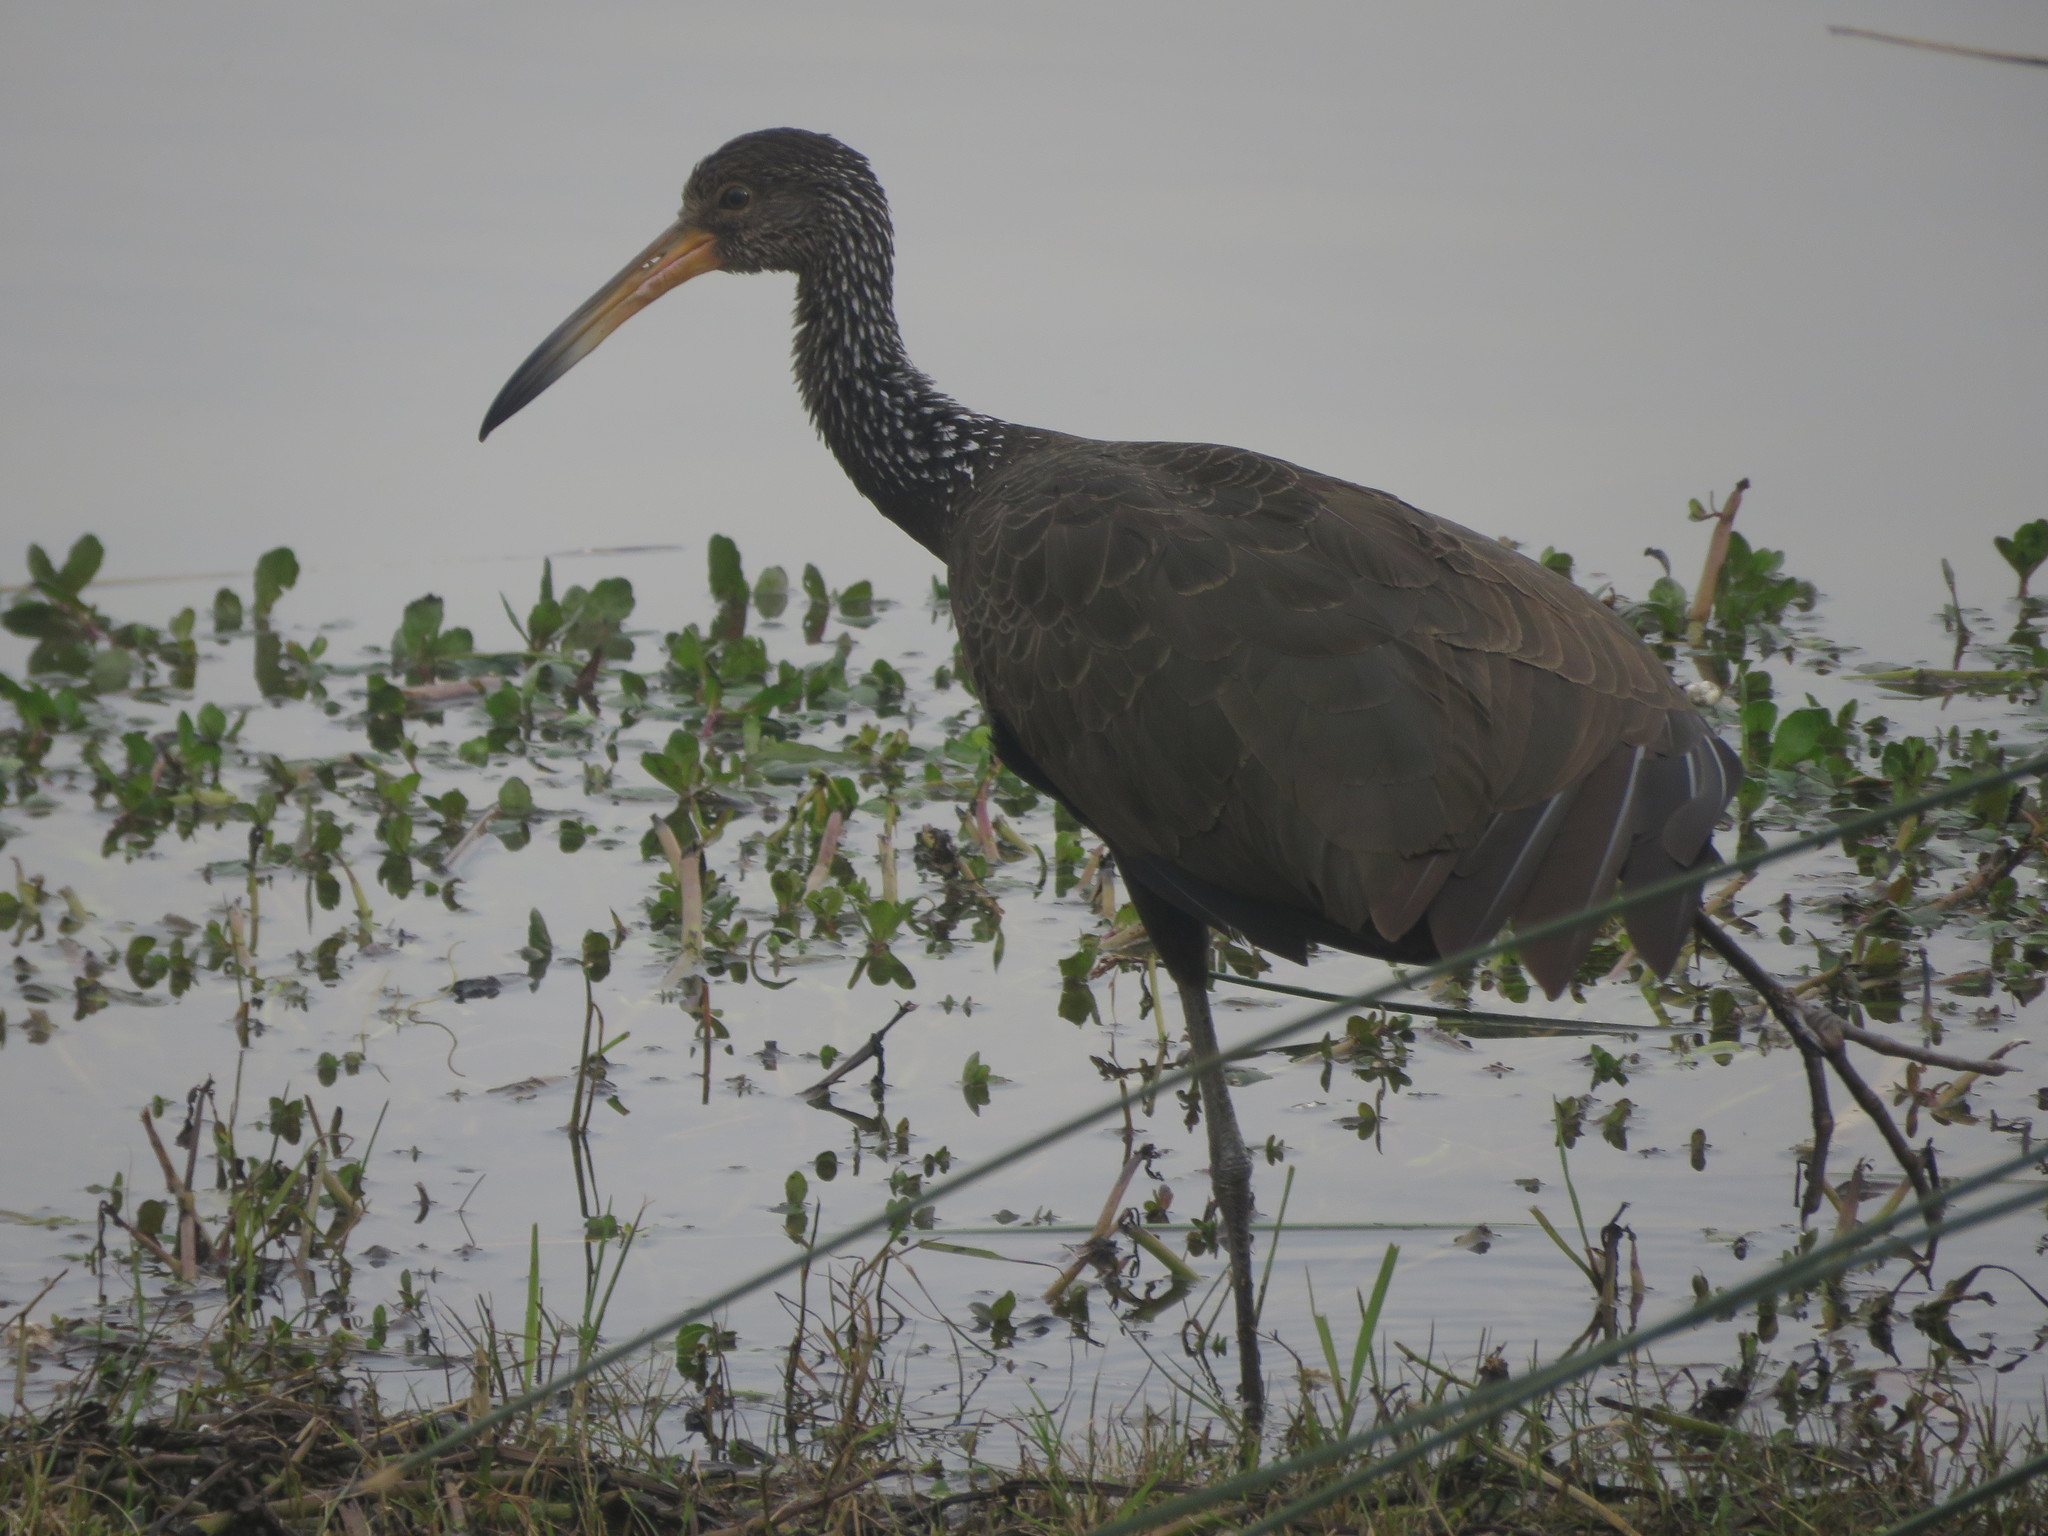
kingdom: Animalia
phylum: Chordata
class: Aves
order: Gruiformes
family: Aramidae
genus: Aramus
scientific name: Aramus guarauna
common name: Limpkin
